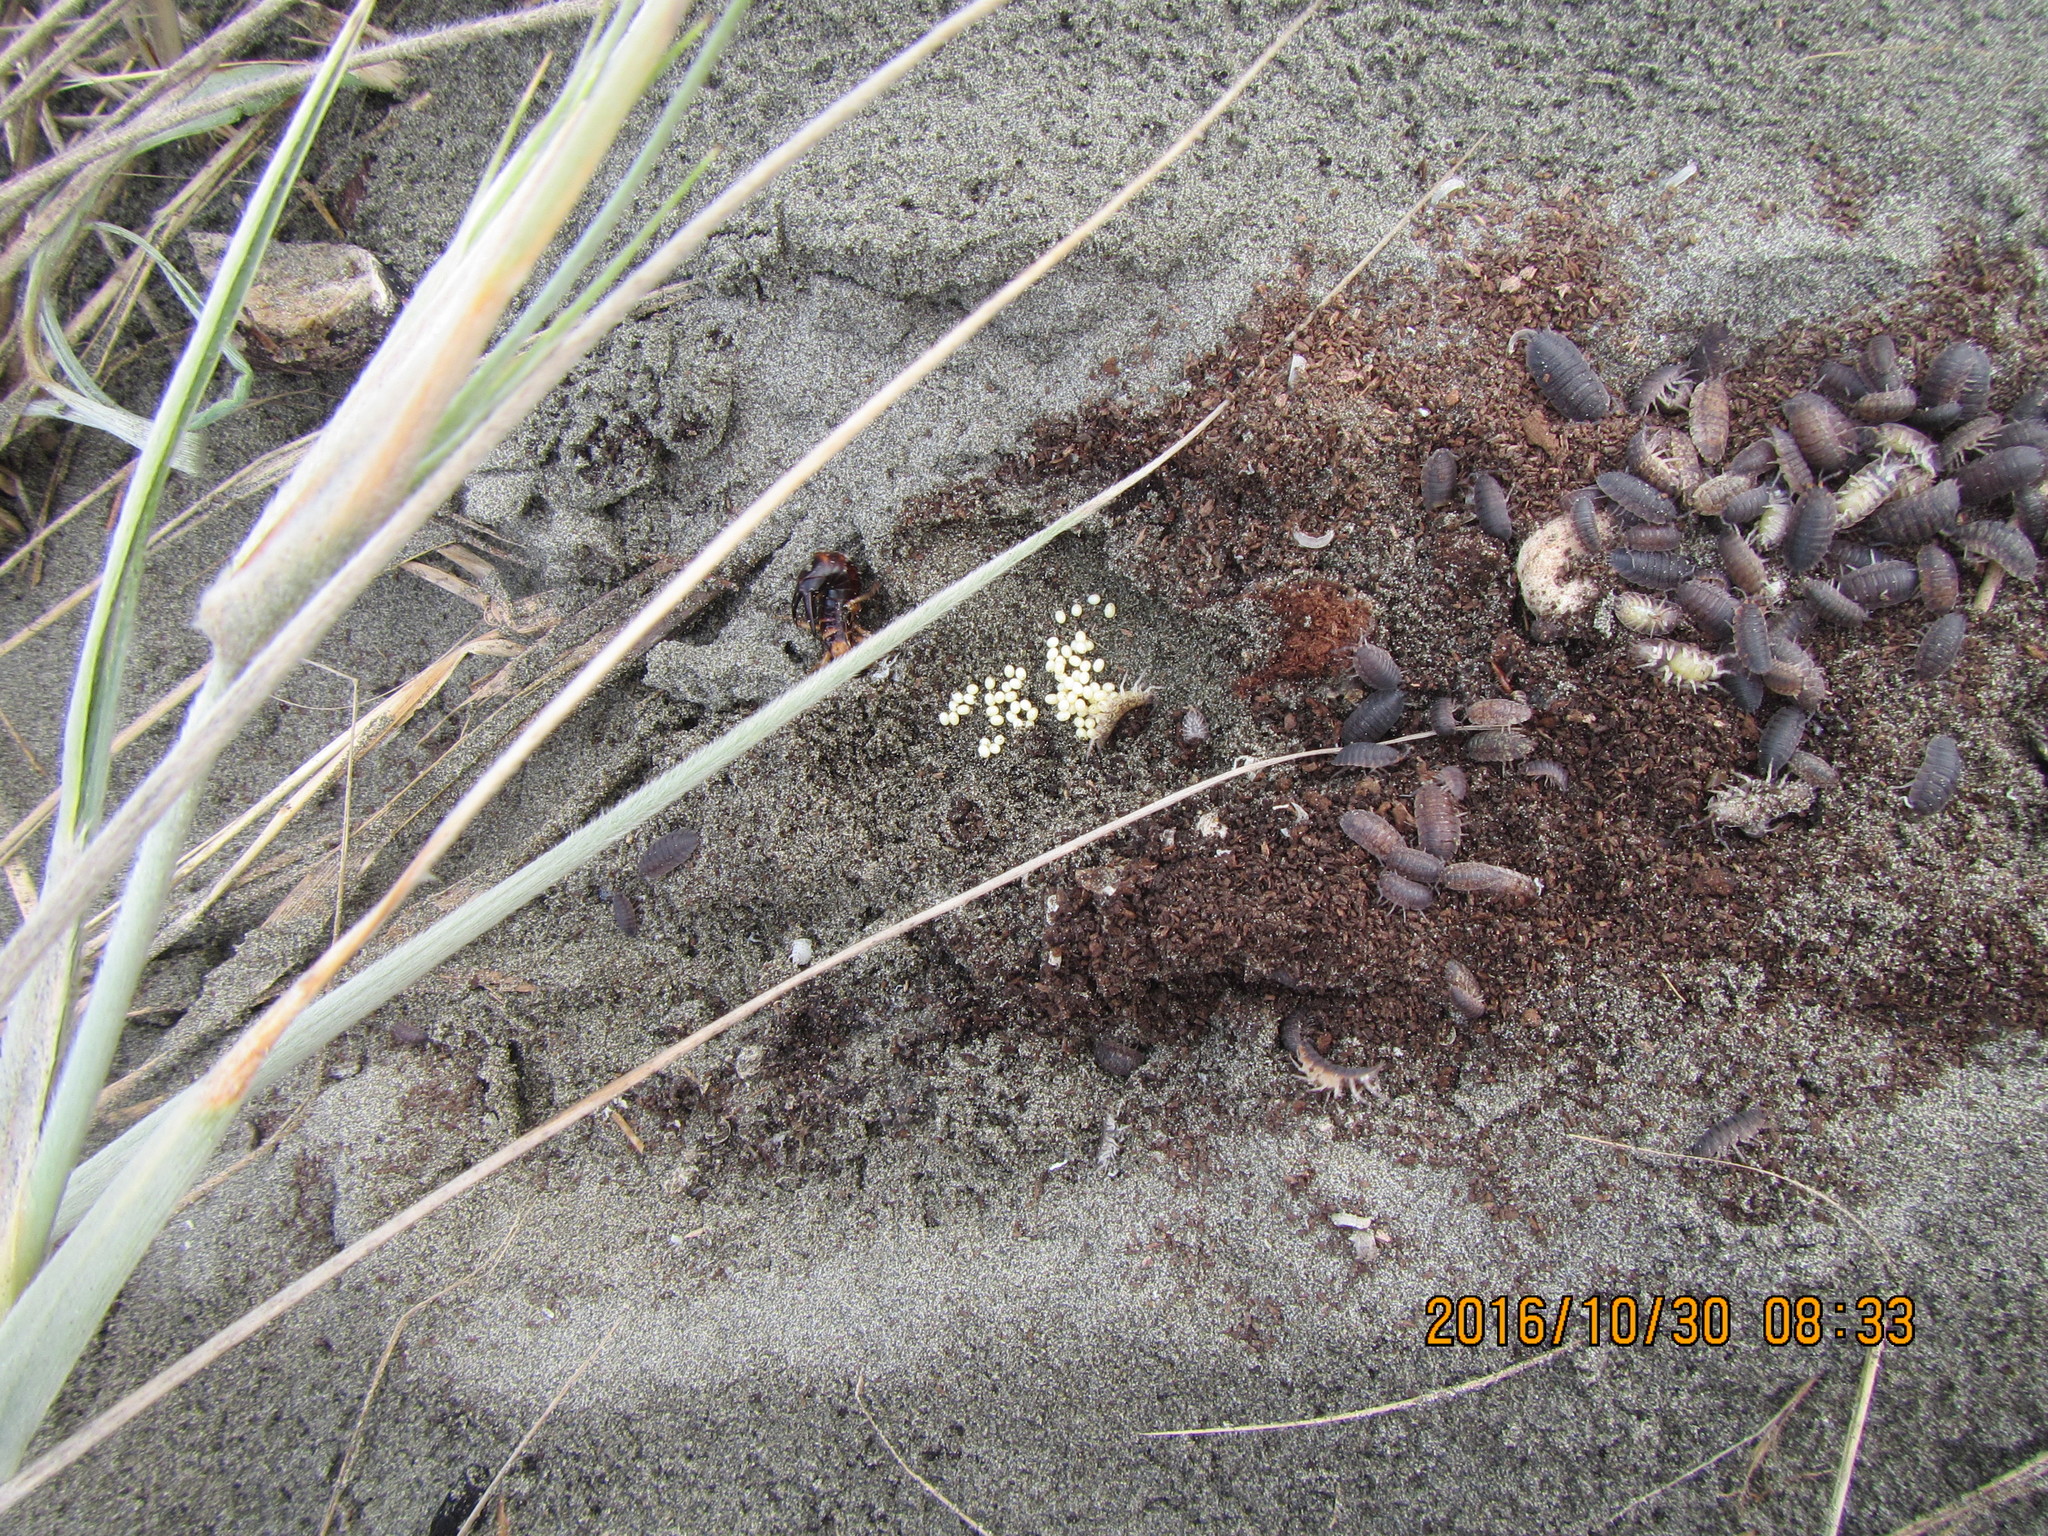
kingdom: Animalia
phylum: Arthropoda
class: Insecta
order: Dermaptera
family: Anisolabididae
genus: Anisolabis
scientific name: Anisolabis littorea
